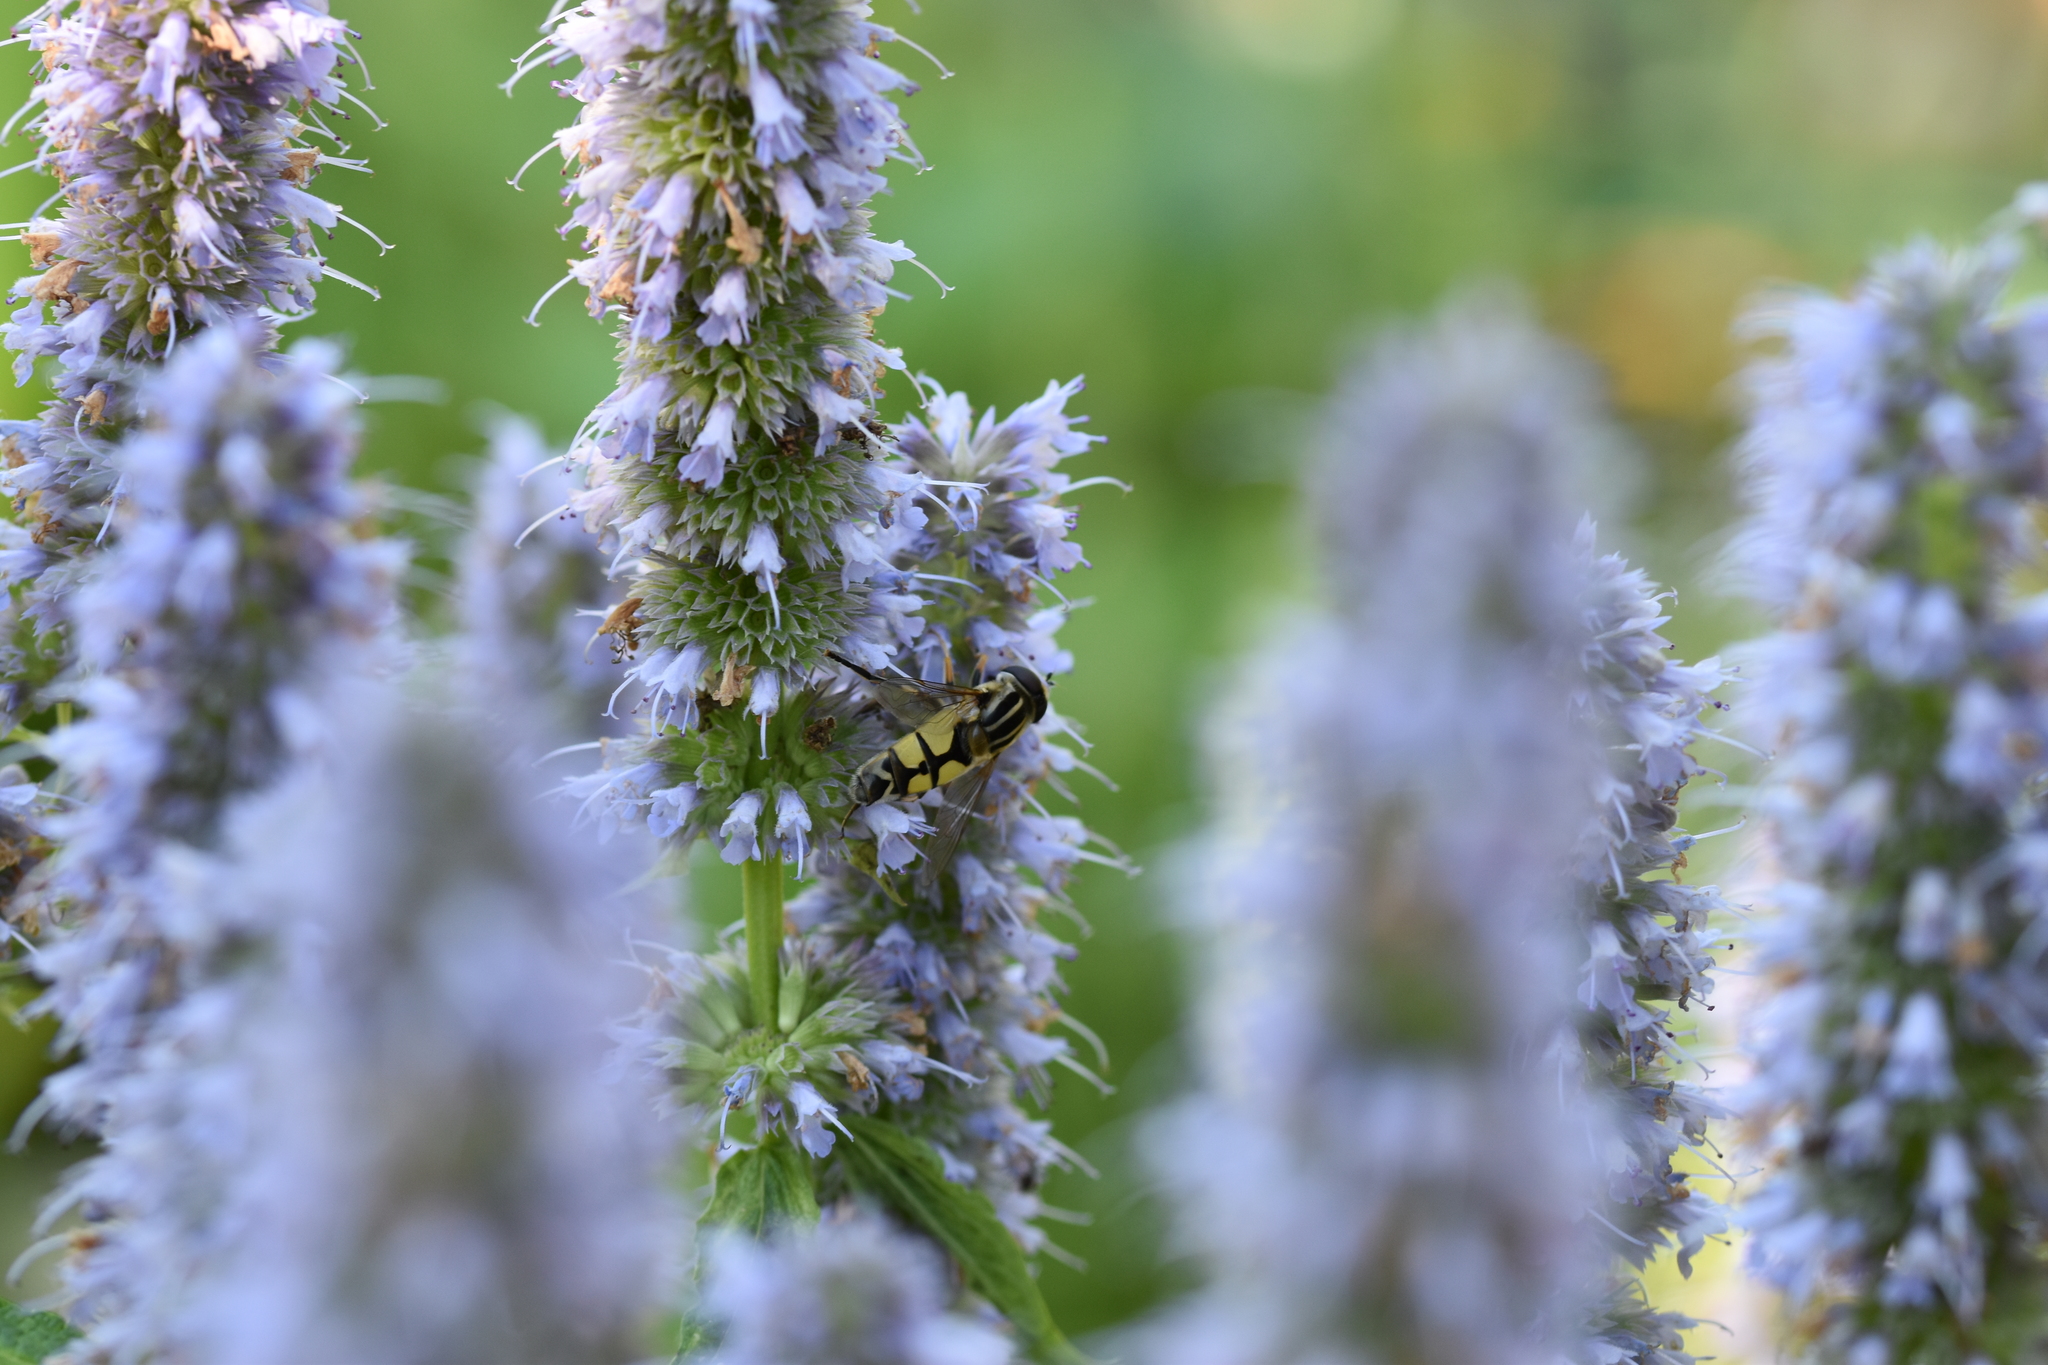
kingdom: Animalia
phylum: Arthropoda
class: Insecta
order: Diptera
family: Syrphidae
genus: Helophilus
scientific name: Helophilus trivittatus
